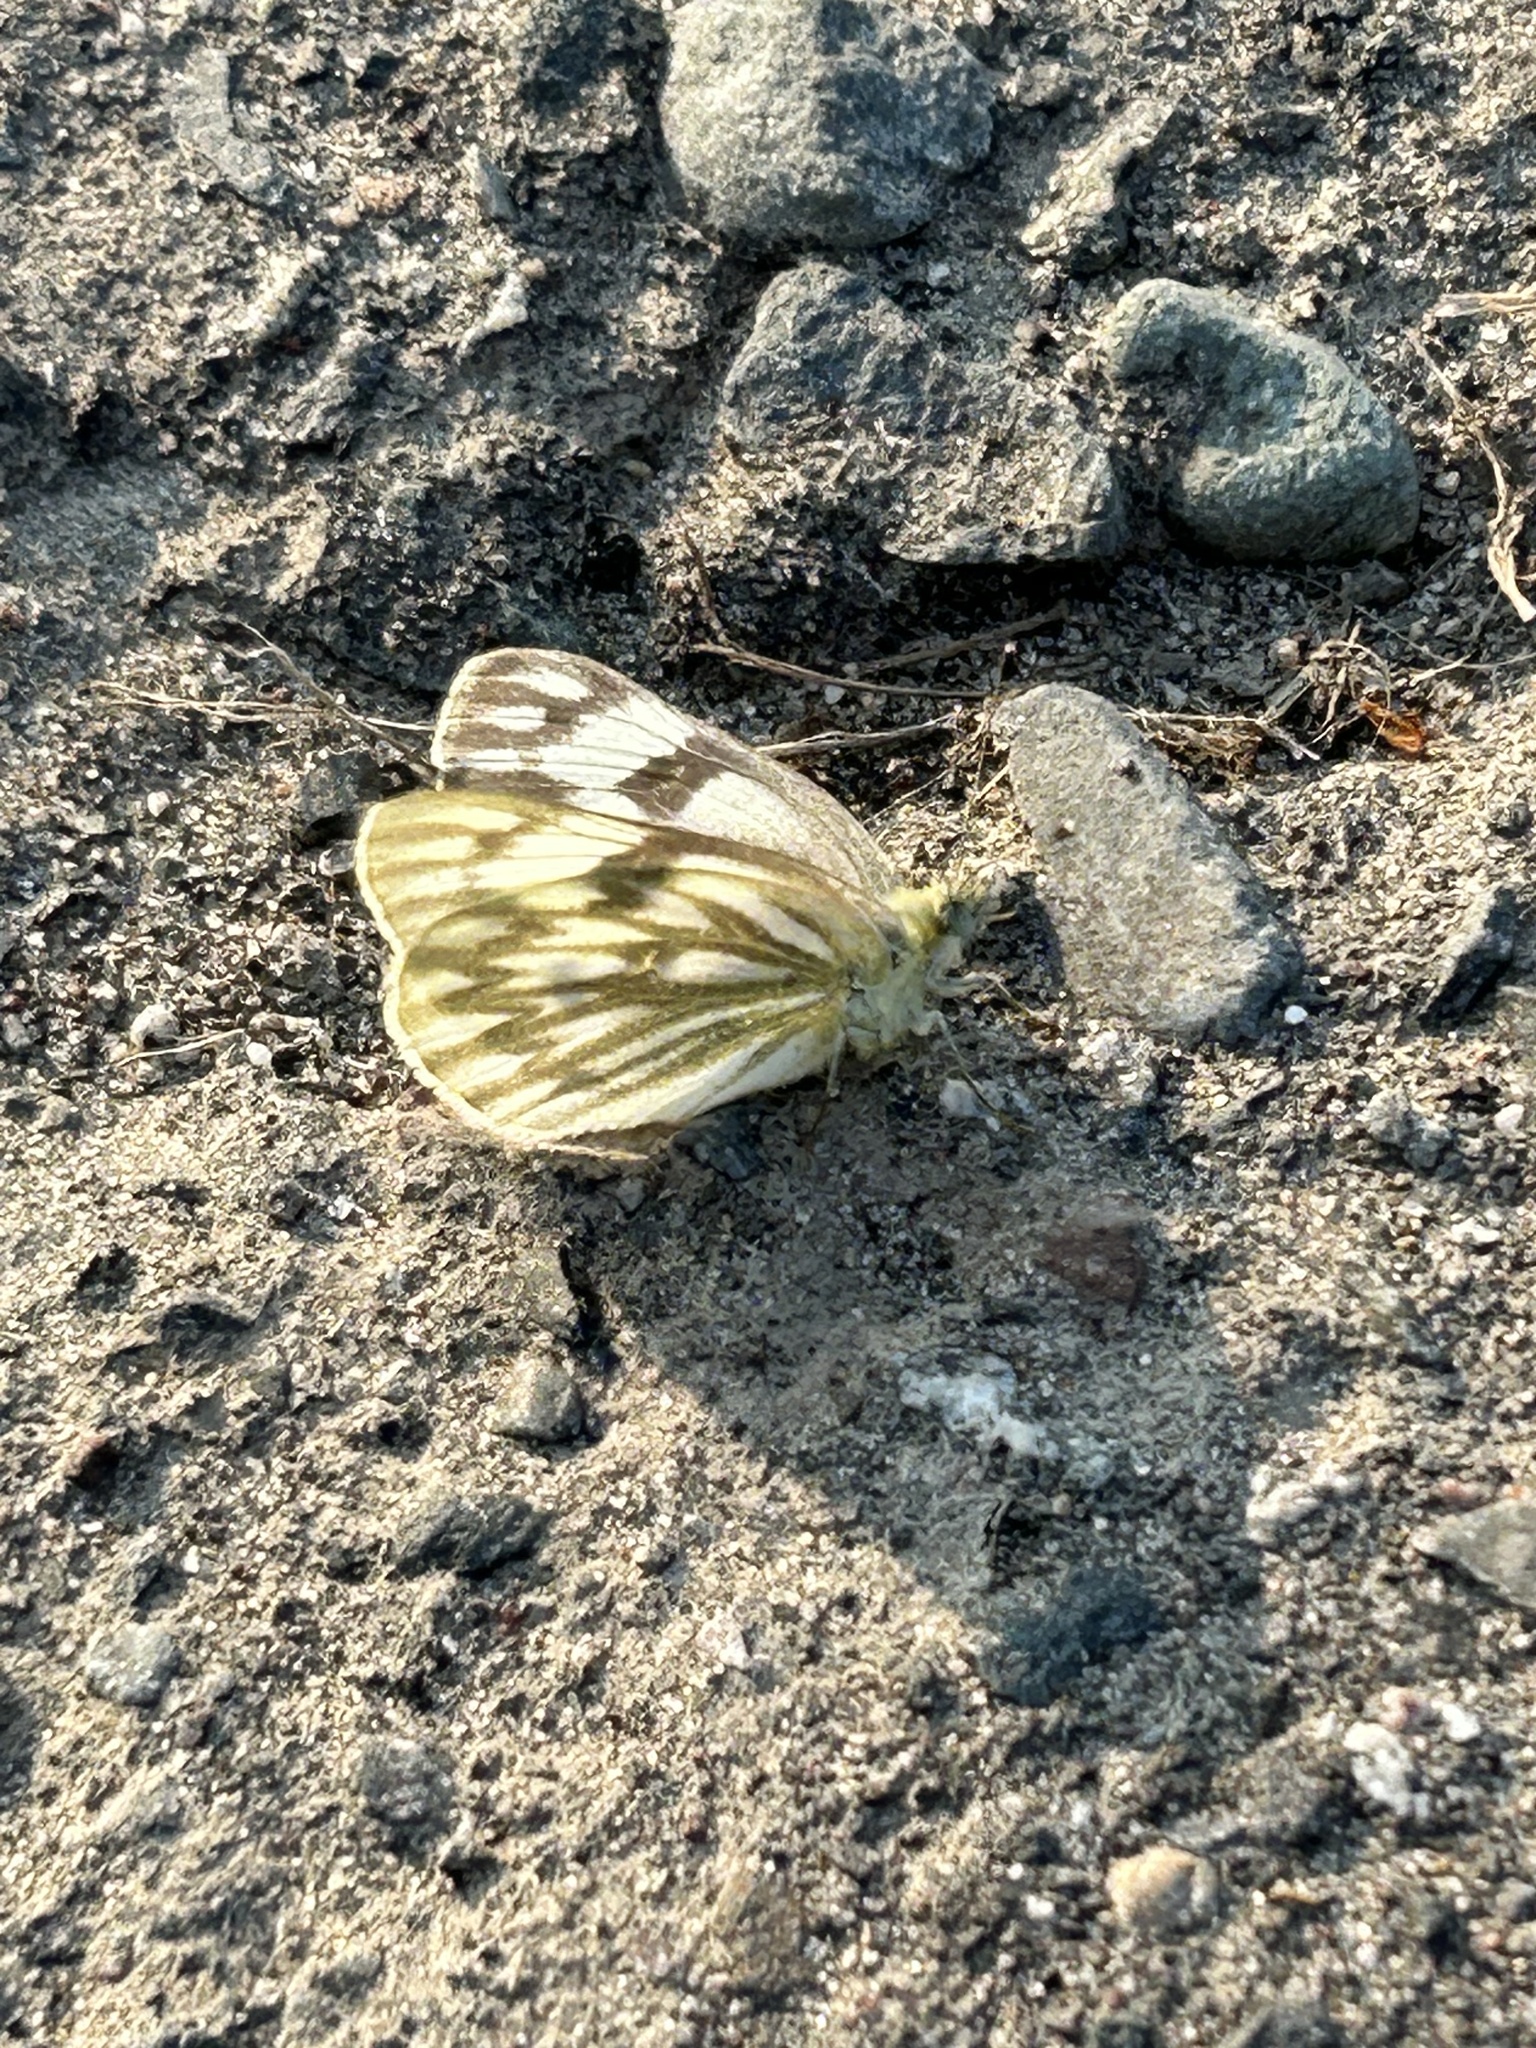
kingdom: Animalia
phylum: Arthropoda
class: Insecta
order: Lepidoptera
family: Pieridae
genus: Pontia
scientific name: Pontia occidentalis
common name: Western white
